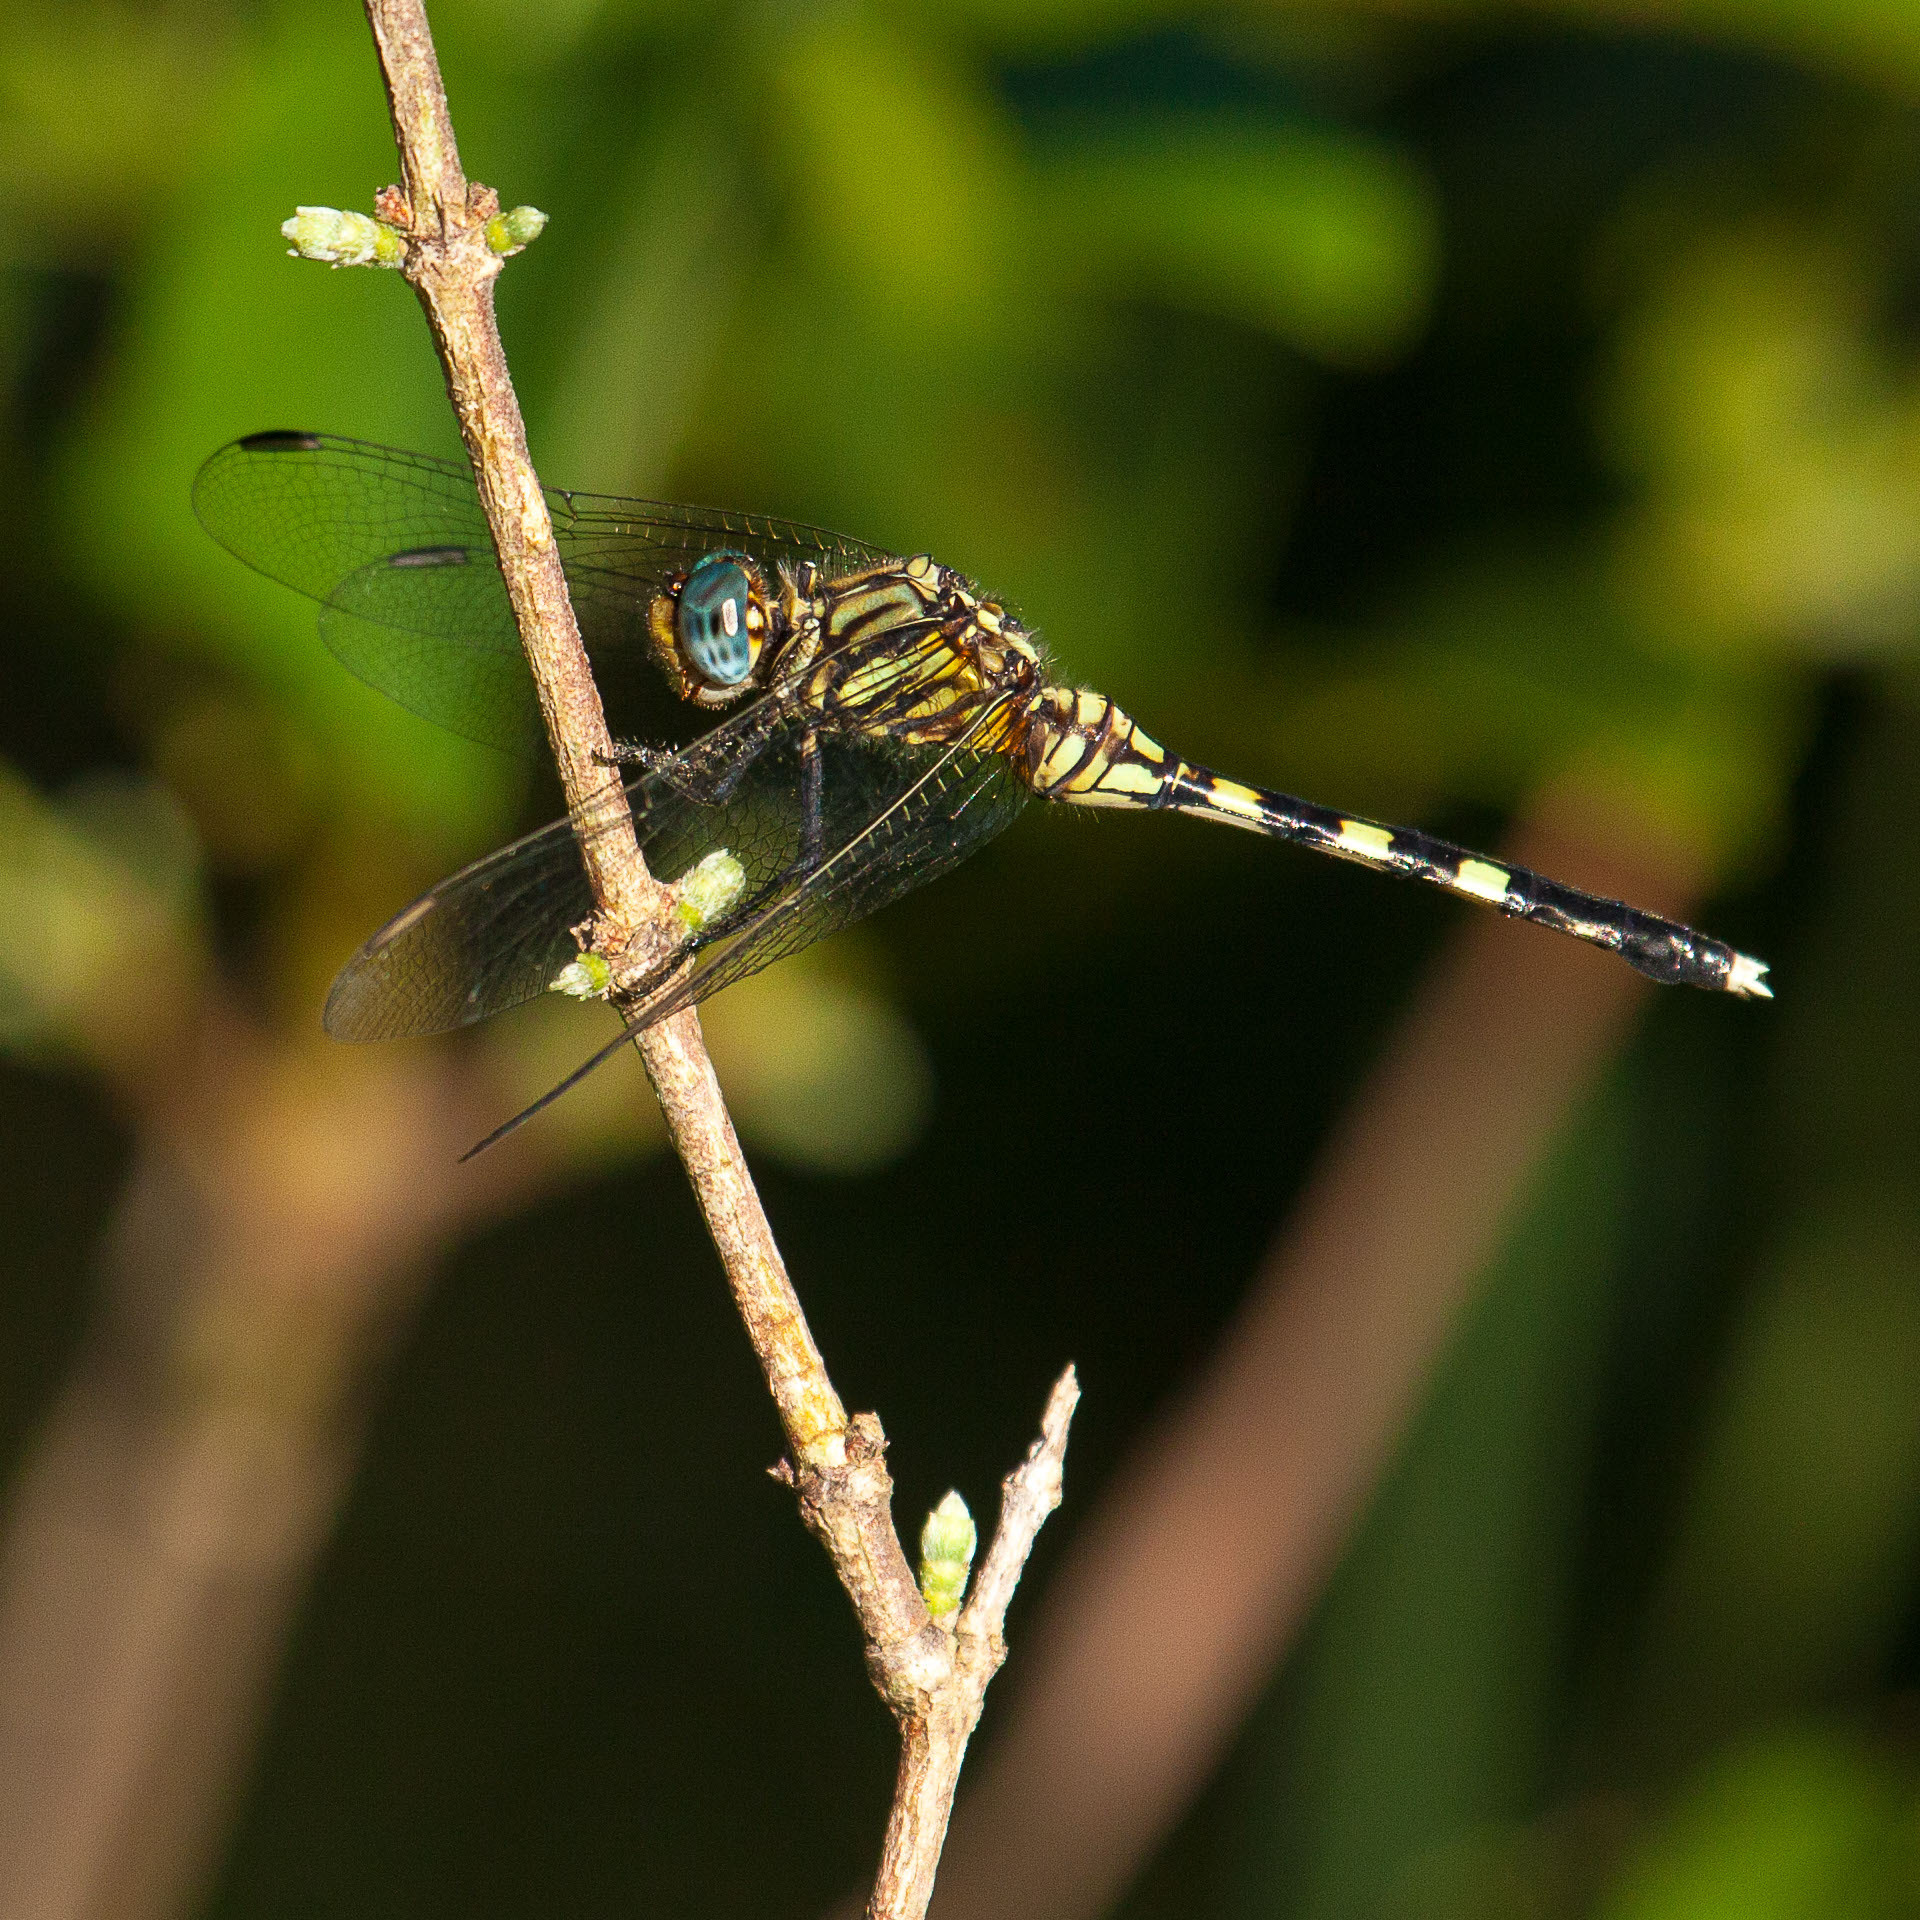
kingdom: Animalia
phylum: Arthropoda
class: Insecta
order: Odonata
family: Libellulidae
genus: Orthetrum
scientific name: Orthetrum stemmale
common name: Bold skimmer
